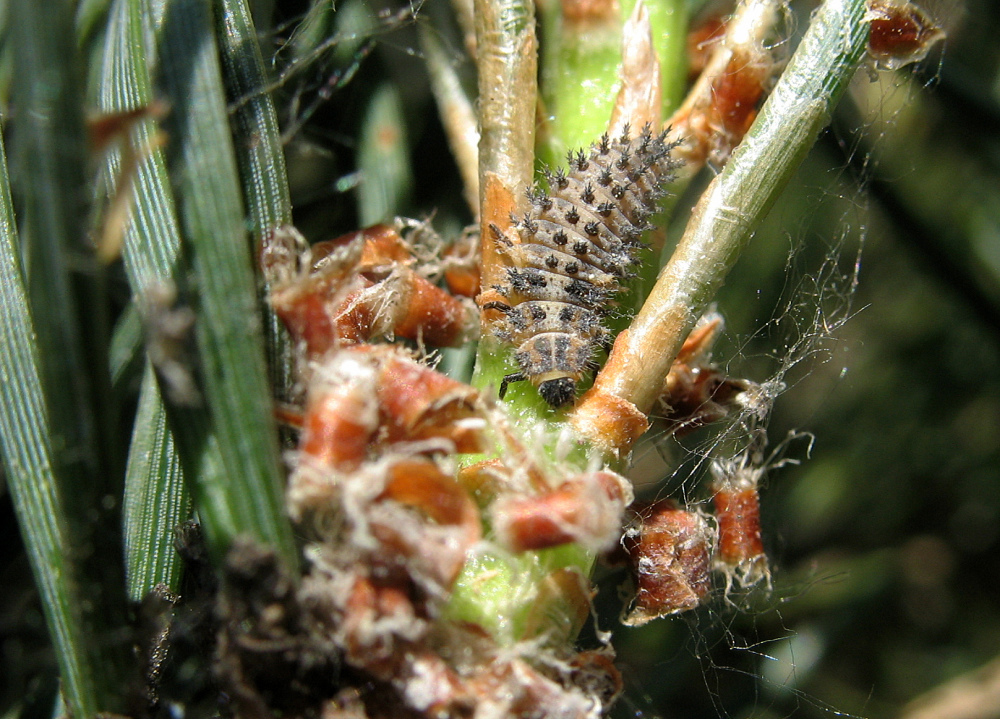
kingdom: Animalia
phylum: Arthropoda
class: Insecta
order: Coleoptera
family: Coccinellidae
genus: Brumus
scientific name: Brumus quadripustulatus
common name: Ladybird beetle
